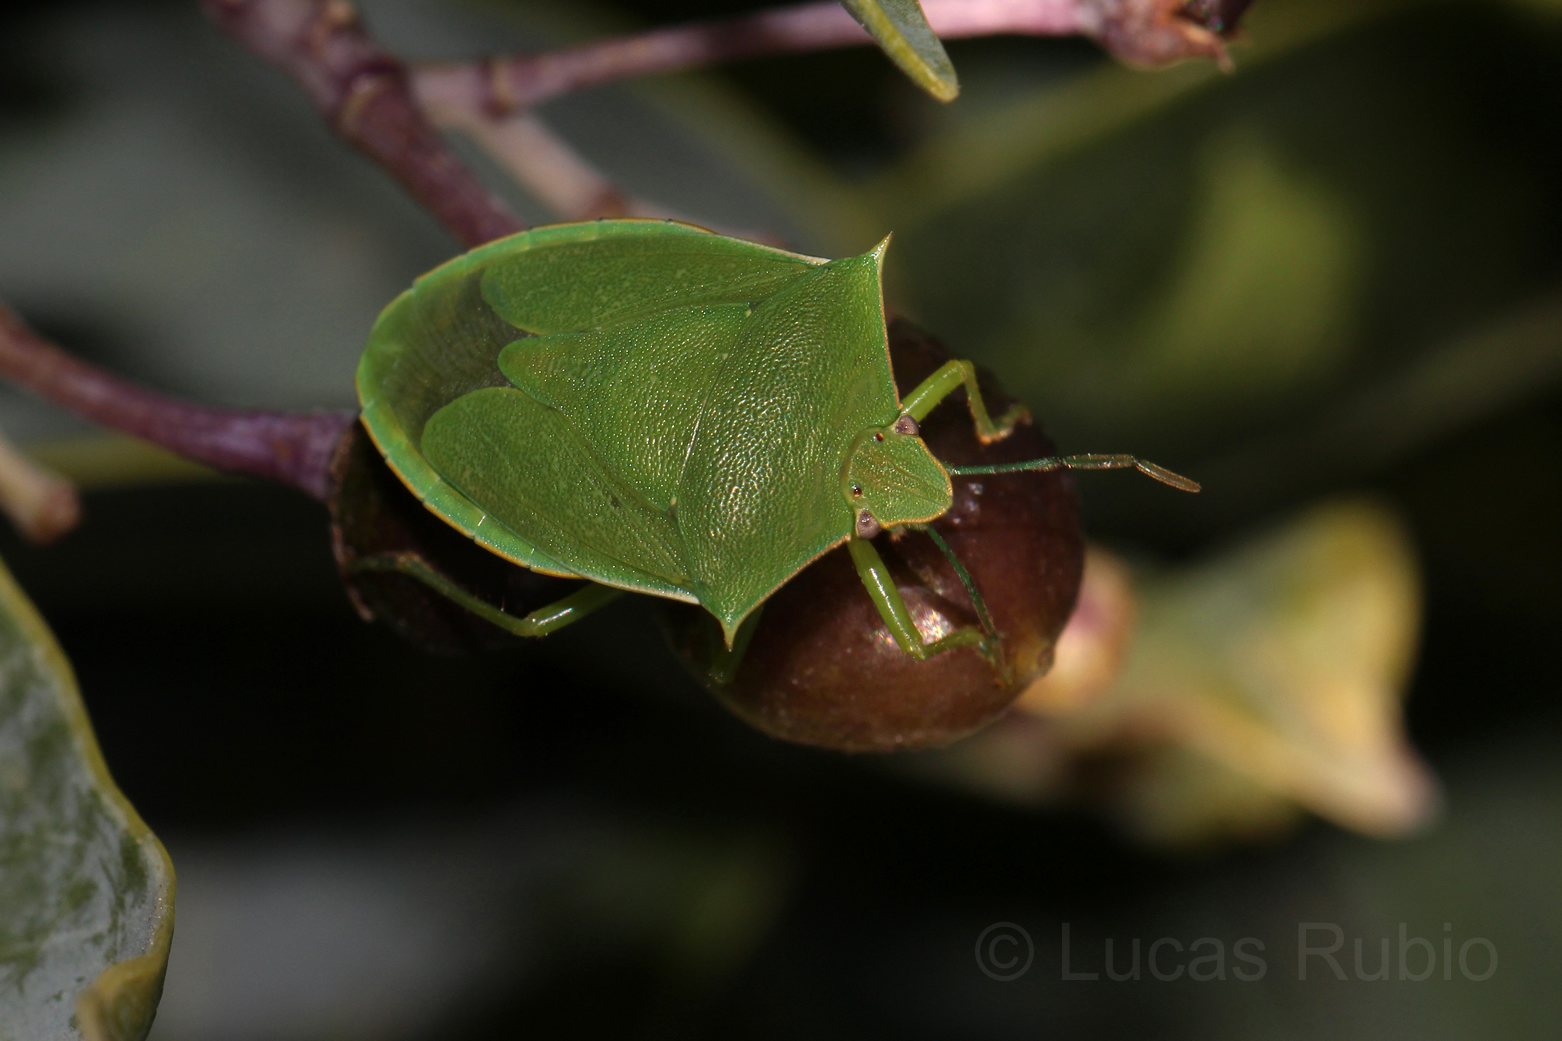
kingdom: Animalia
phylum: Arthropoda
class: Insecta
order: Hemiptera
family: Pentatomidae
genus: Chinavia
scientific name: Chinavia nigridorsata
